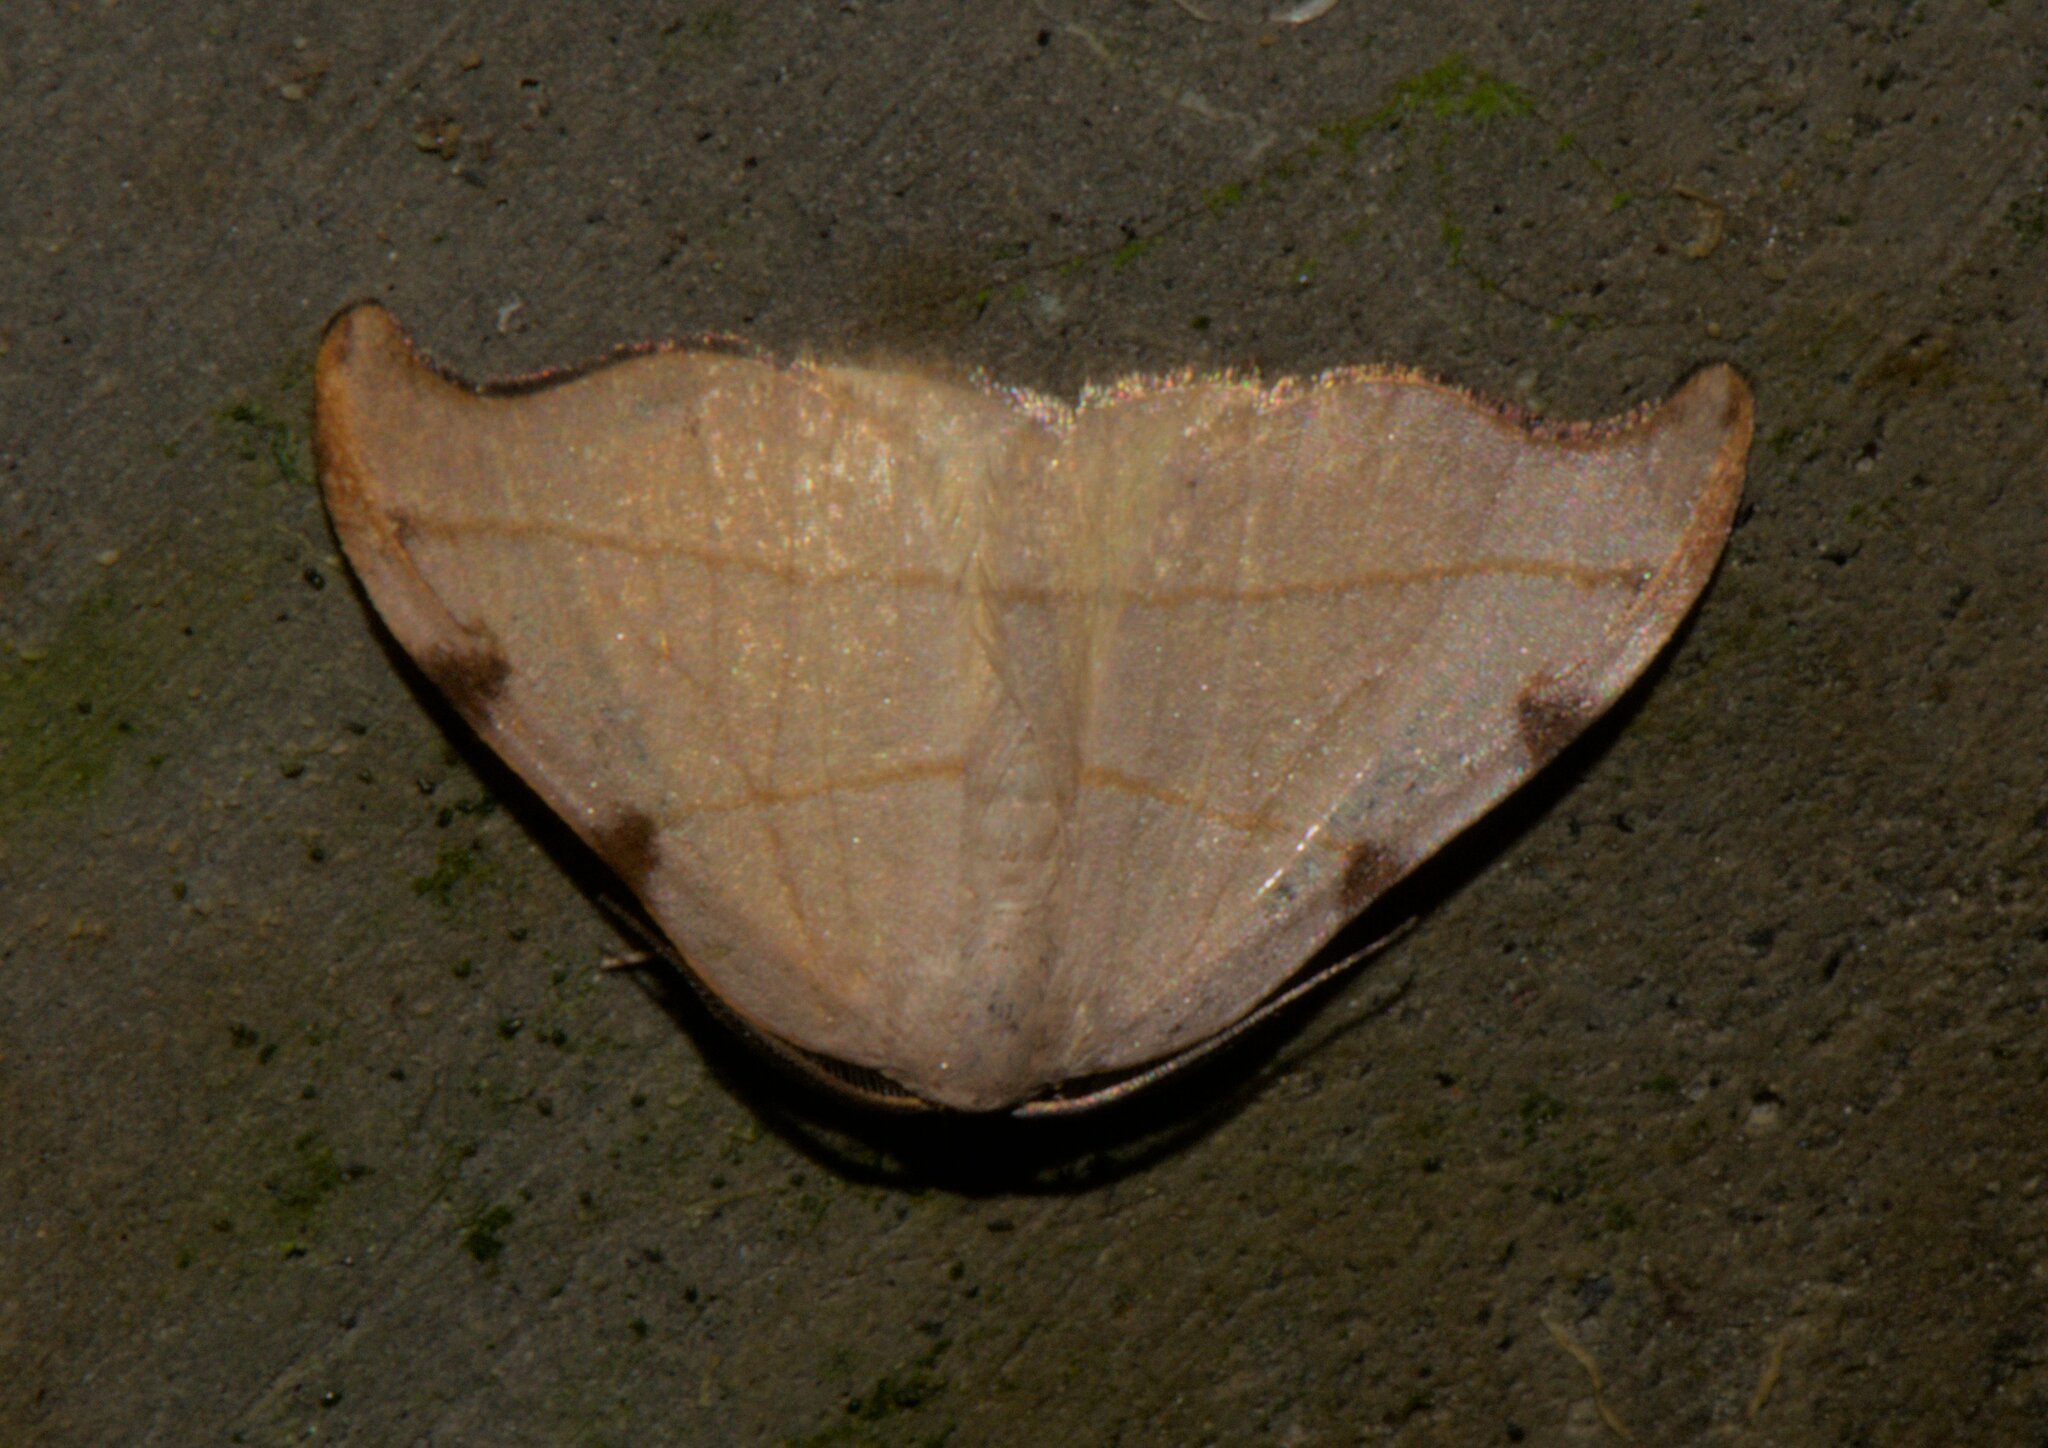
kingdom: Animalia
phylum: Arthropoda
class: Insecta
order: Lepidoptera
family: Drepanidae
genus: Nordstromia
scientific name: Nordstromia bicostata
